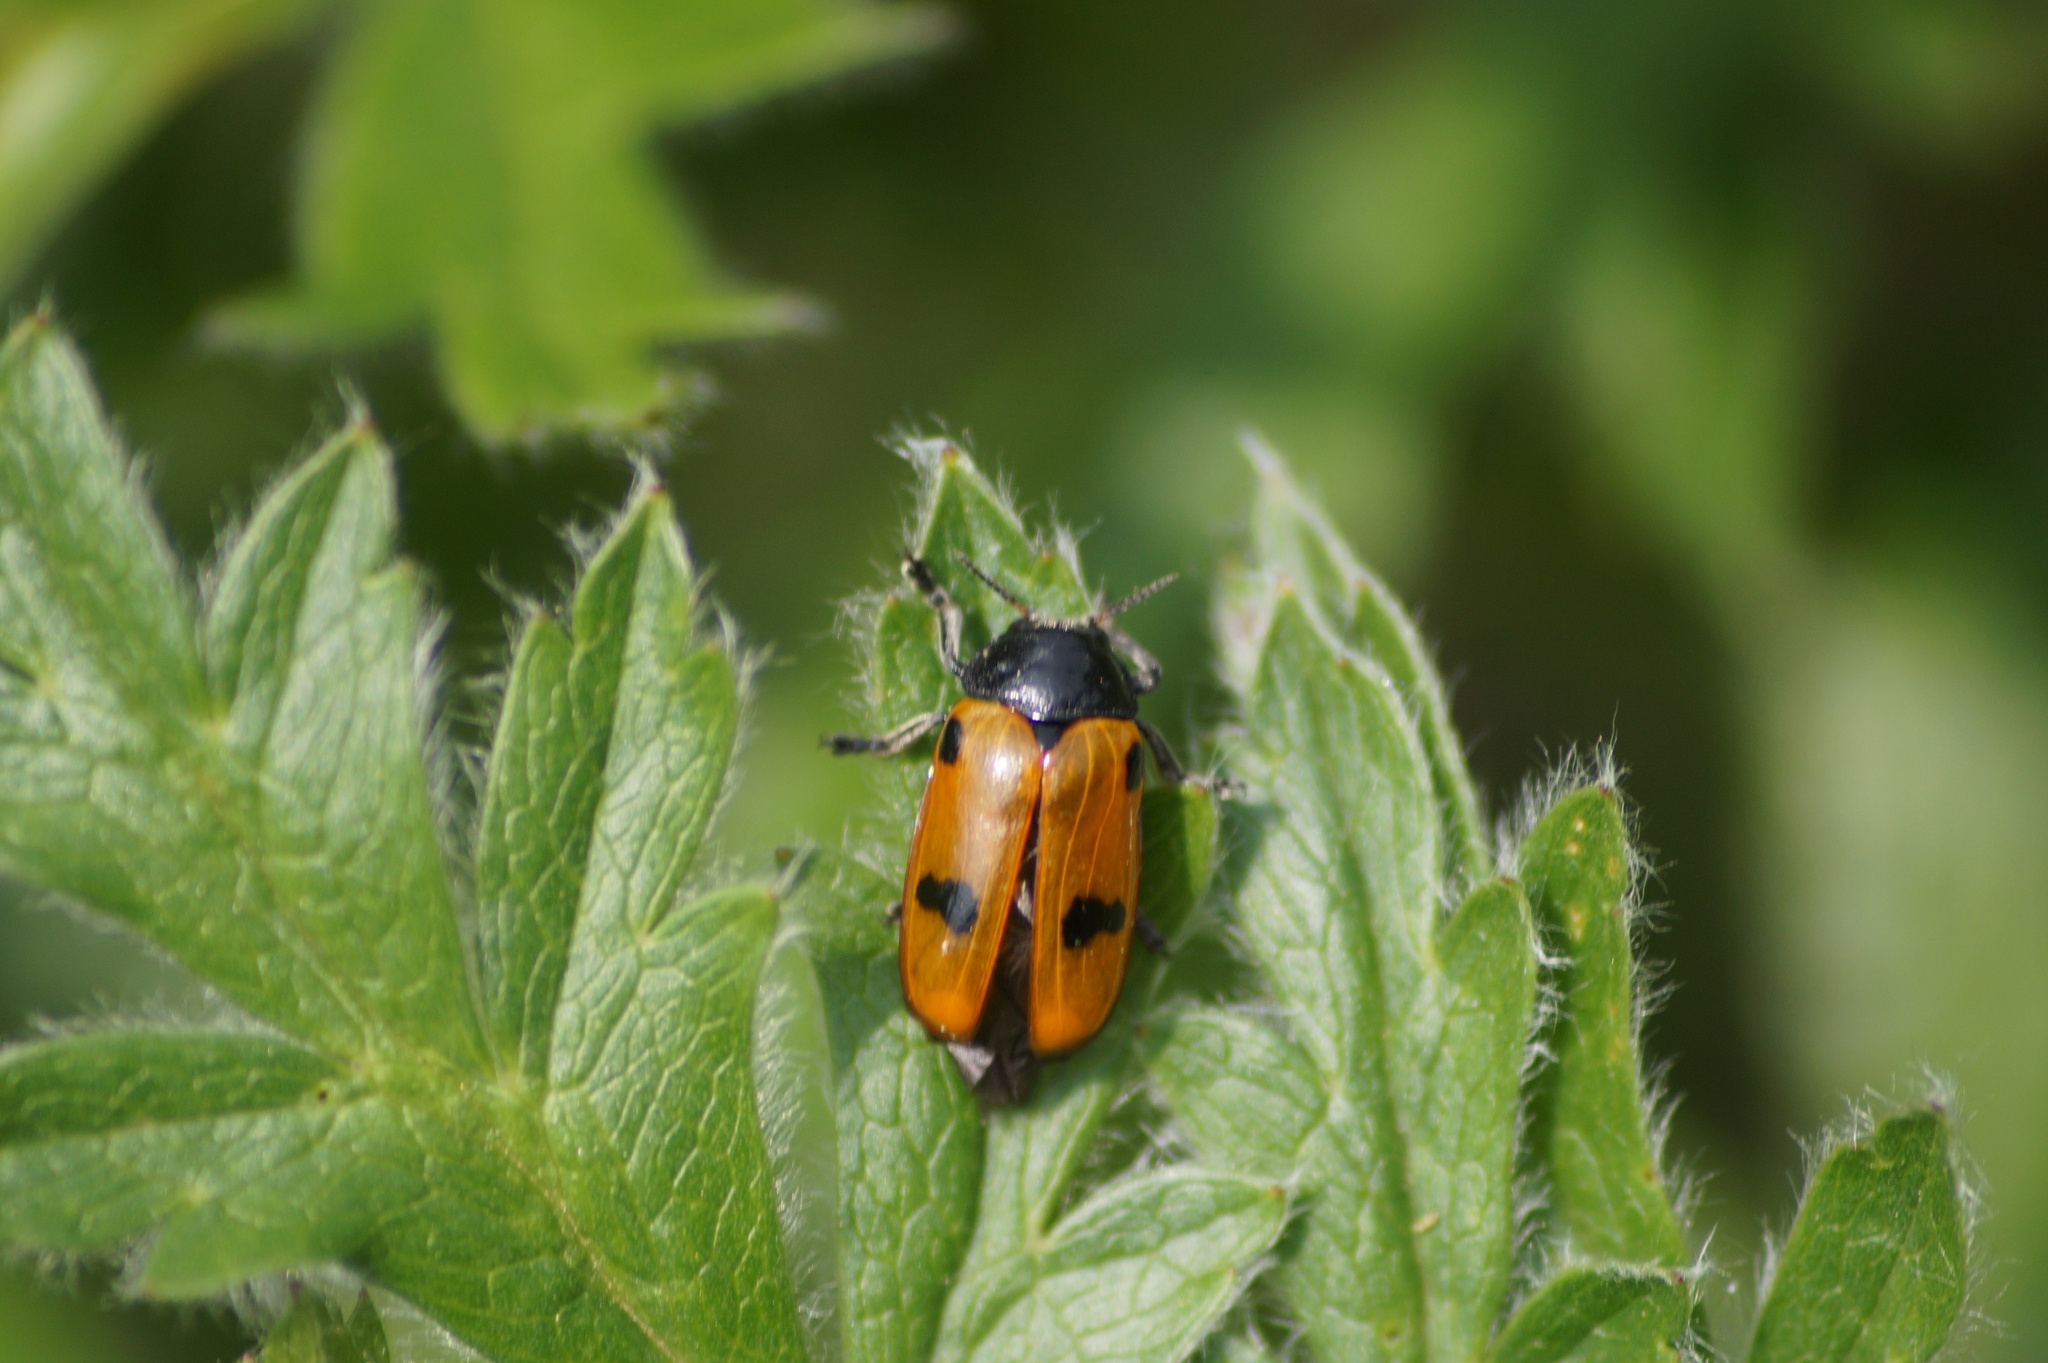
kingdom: Animalia
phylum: Arthropoda
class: Insecta
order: Coleoptera
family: Chrysomelidae
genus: Clytra
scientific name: Clytra quadripunctata
